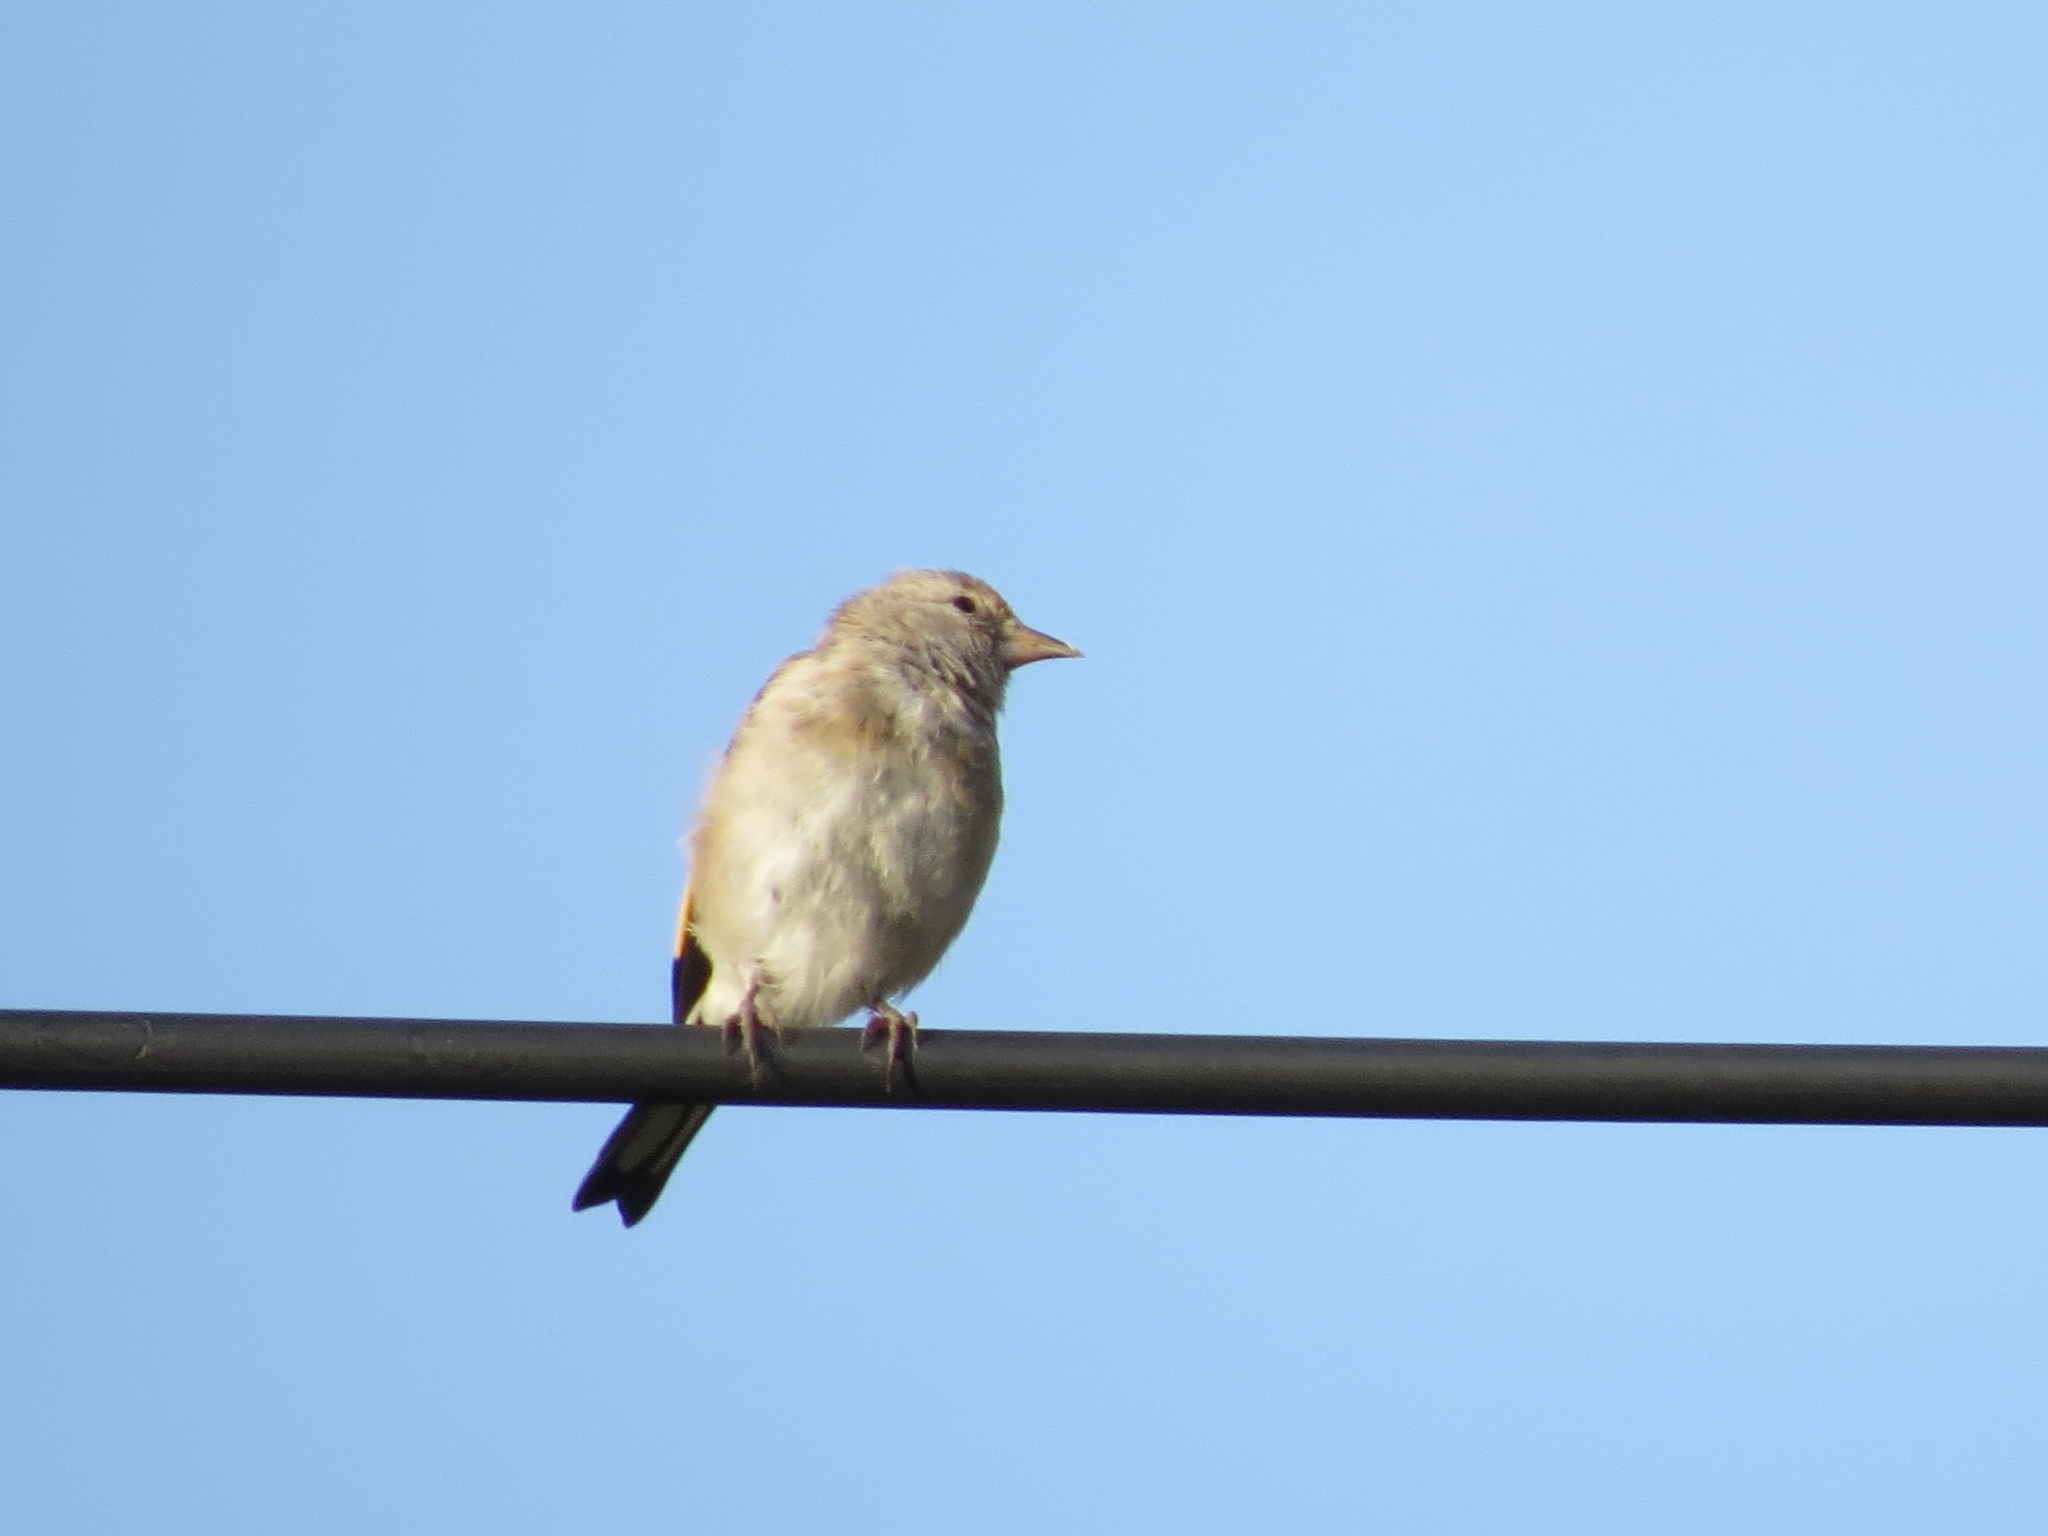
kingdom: Animalia
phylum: Chordata
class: Aves
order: Passeriformes
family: Fringillidae
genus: Carduelis
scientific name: Carduelis carduelis
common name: European goldfinch
